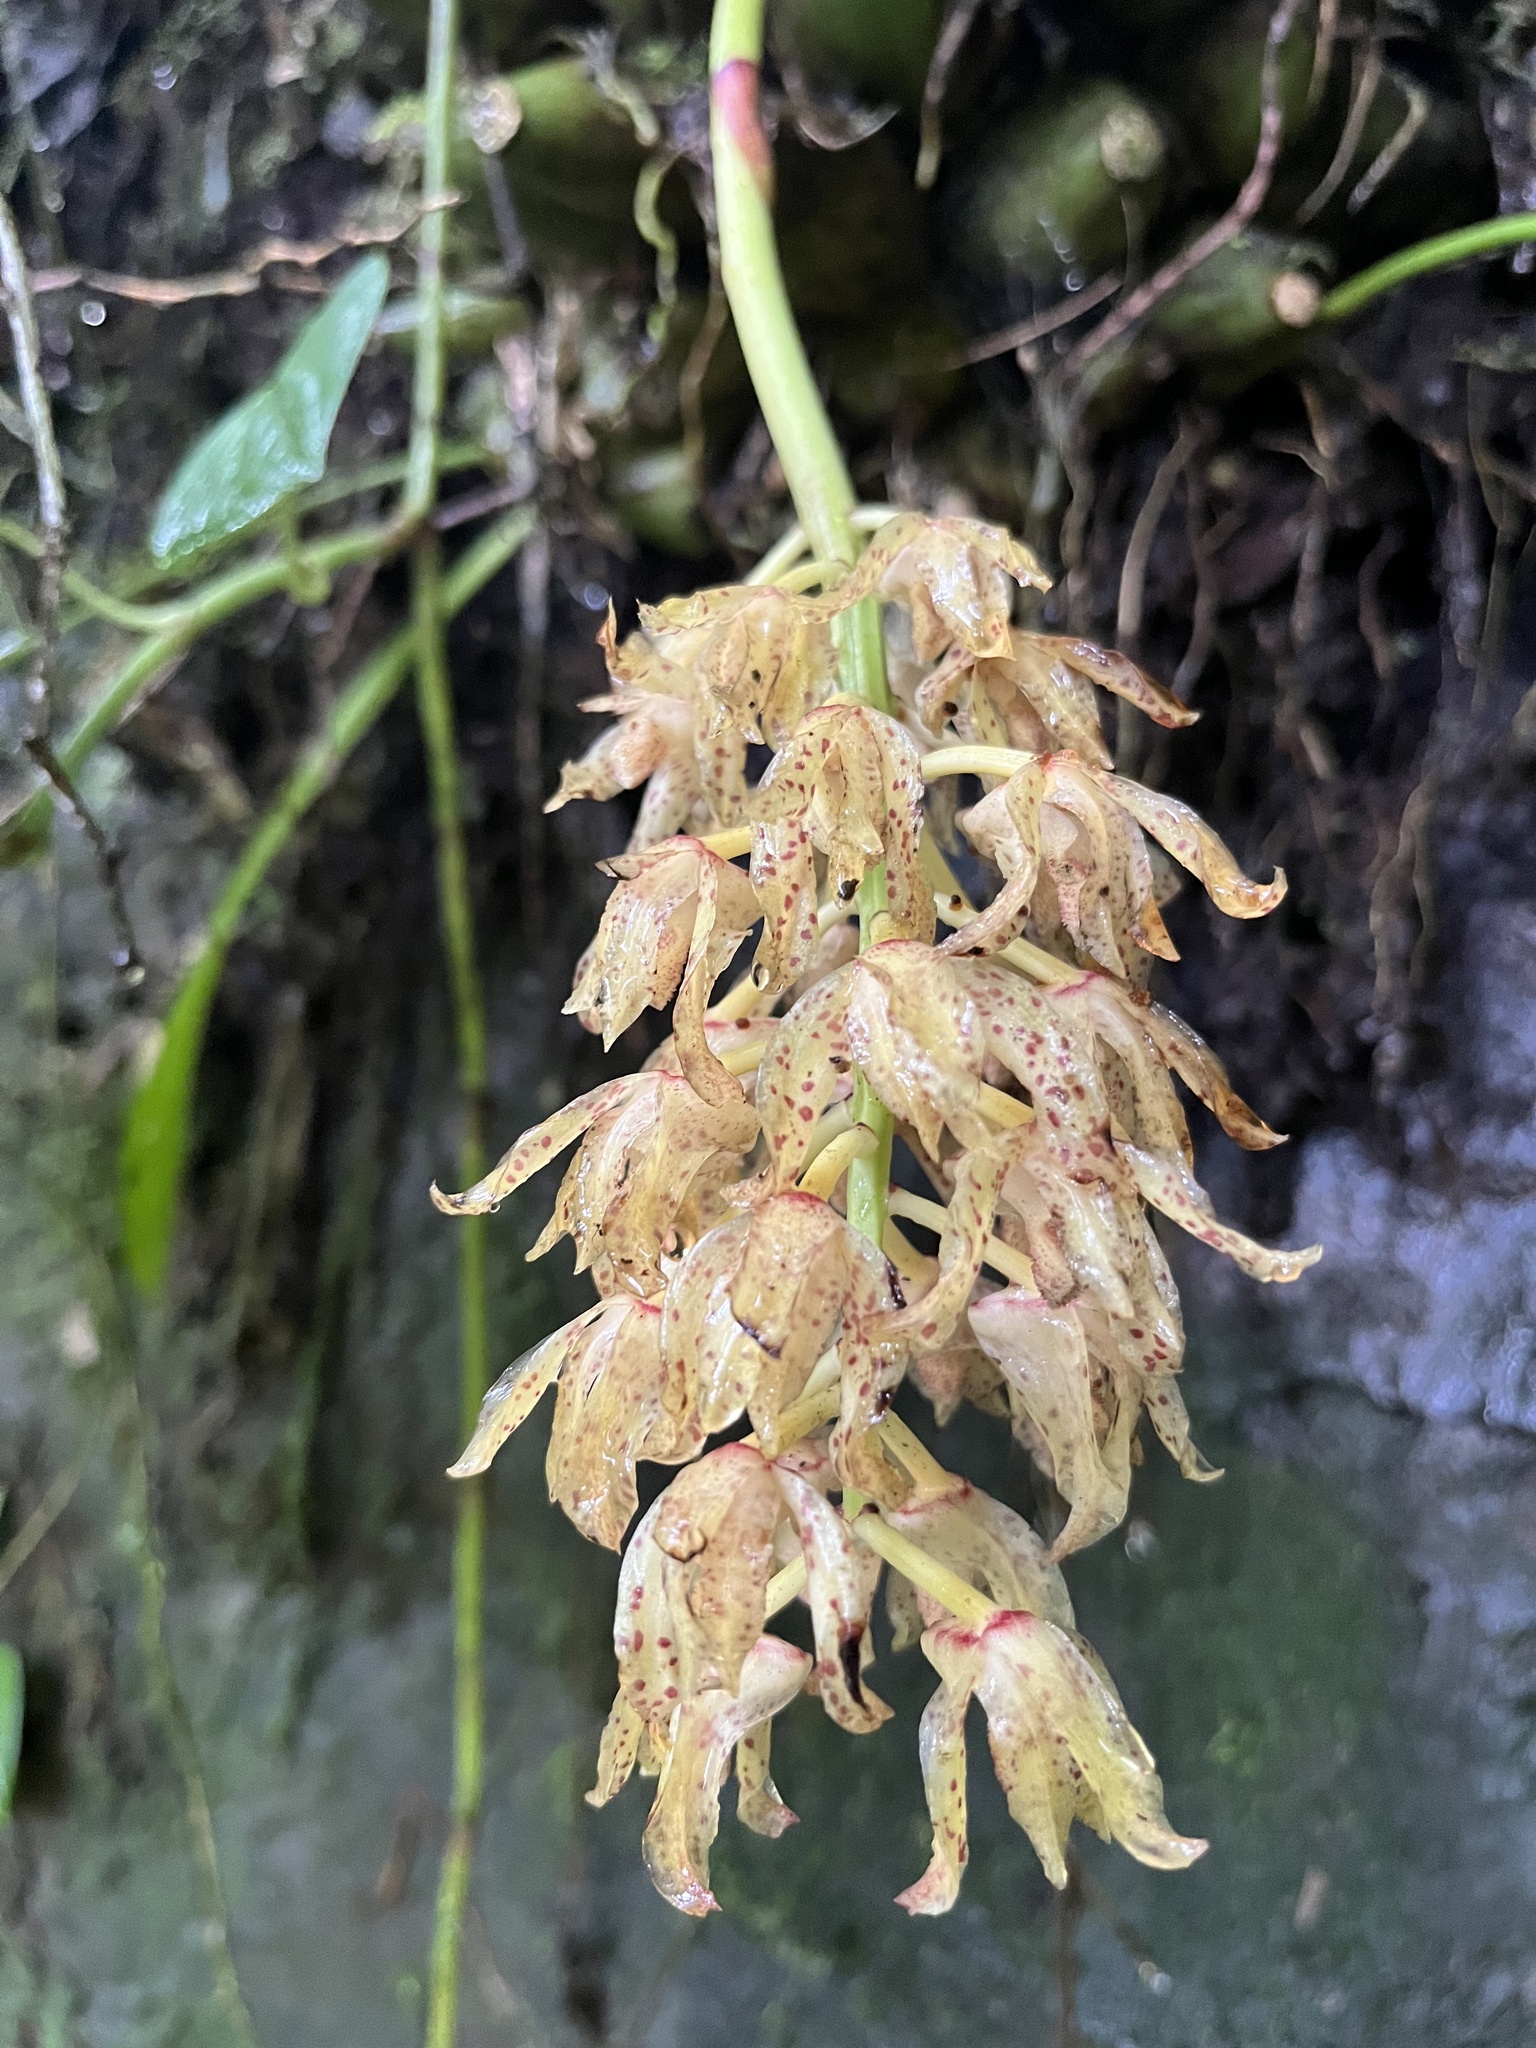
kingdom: Plantae
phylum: Tracheophyta
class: Liliopsida
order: Asparagales
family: Orchidaceae
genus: Xylobium
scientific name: Xylobium leontoglossum
